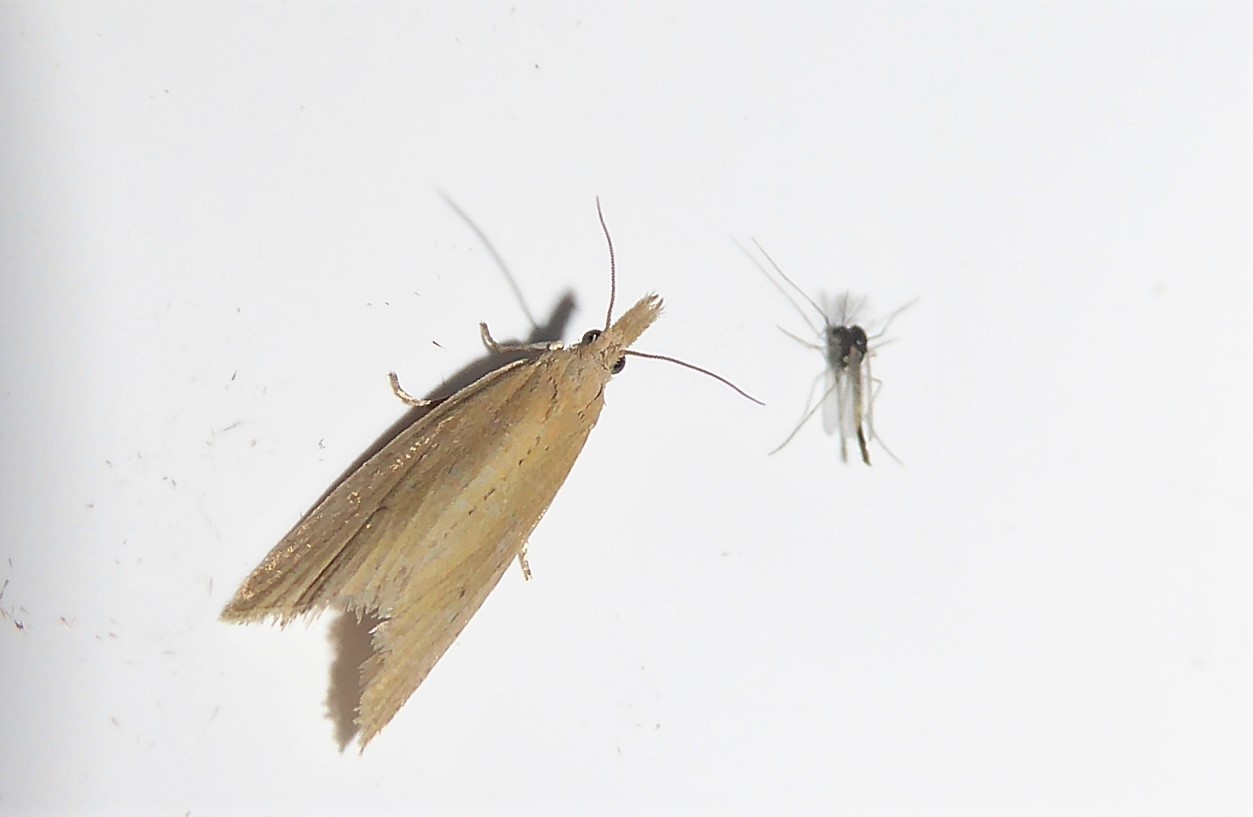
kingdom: Animalia
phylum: Arthropoda
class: Insecta
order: Lepidoptera
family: Tortricidae
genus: Bactra
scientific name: Bactra noteraula
